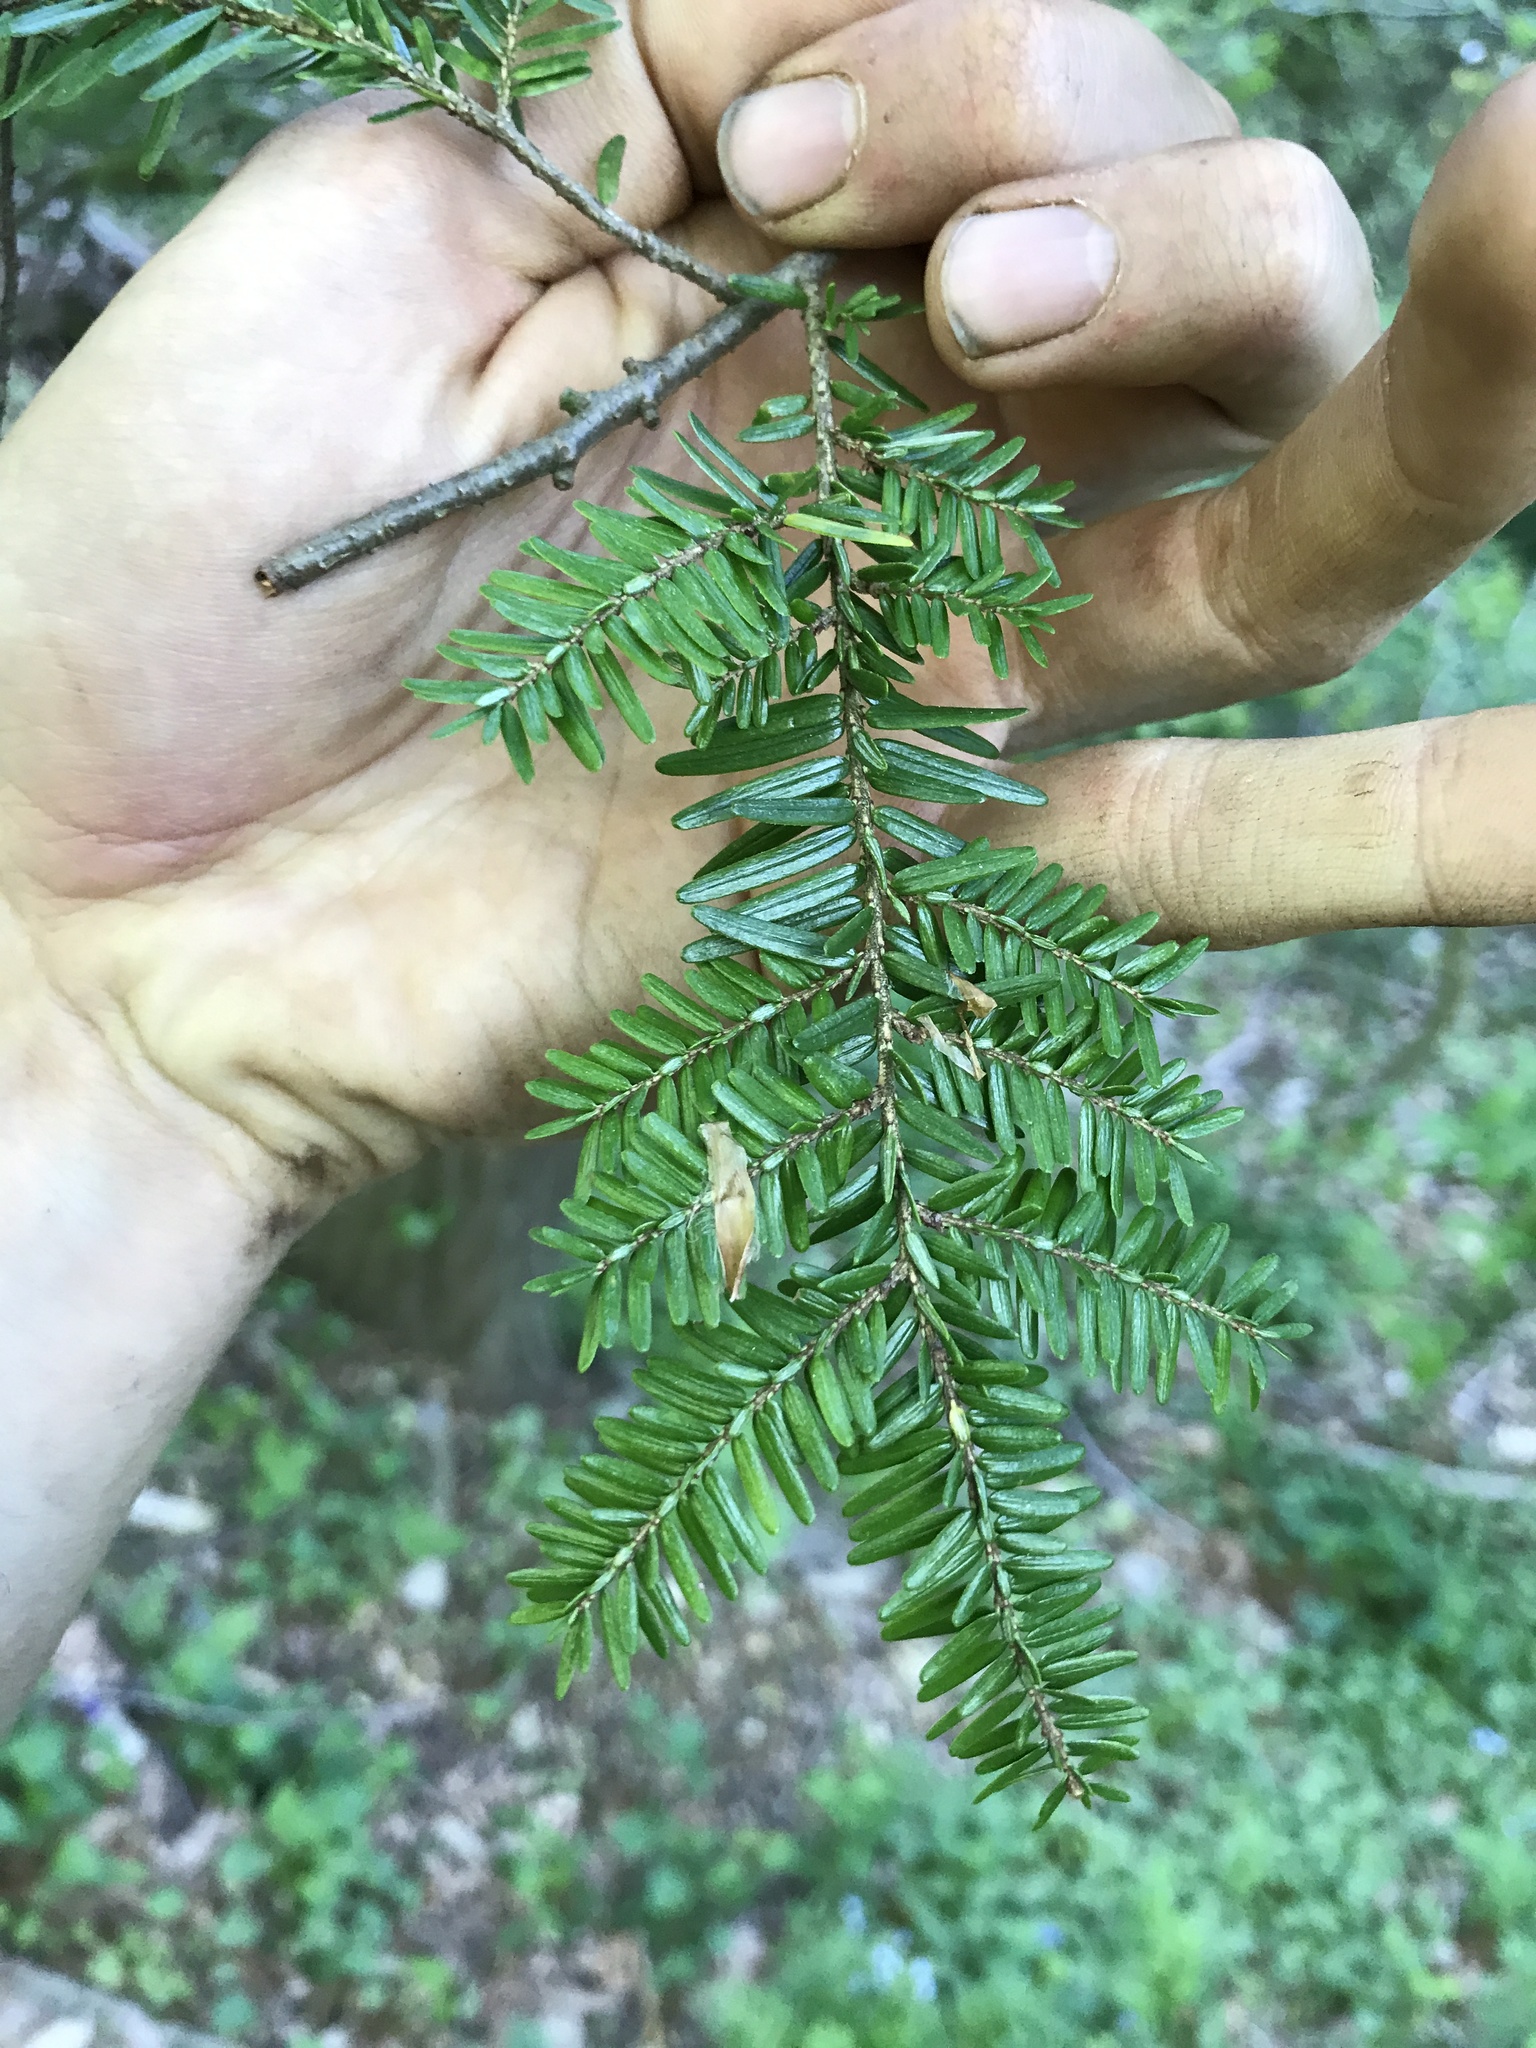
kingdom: Plantae
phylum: Tracheophyta
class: Pinopsida
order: Pinales
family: Pinaceae
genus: Tsuga
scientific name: Tsuga canadensis
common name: Eastern hemlock
